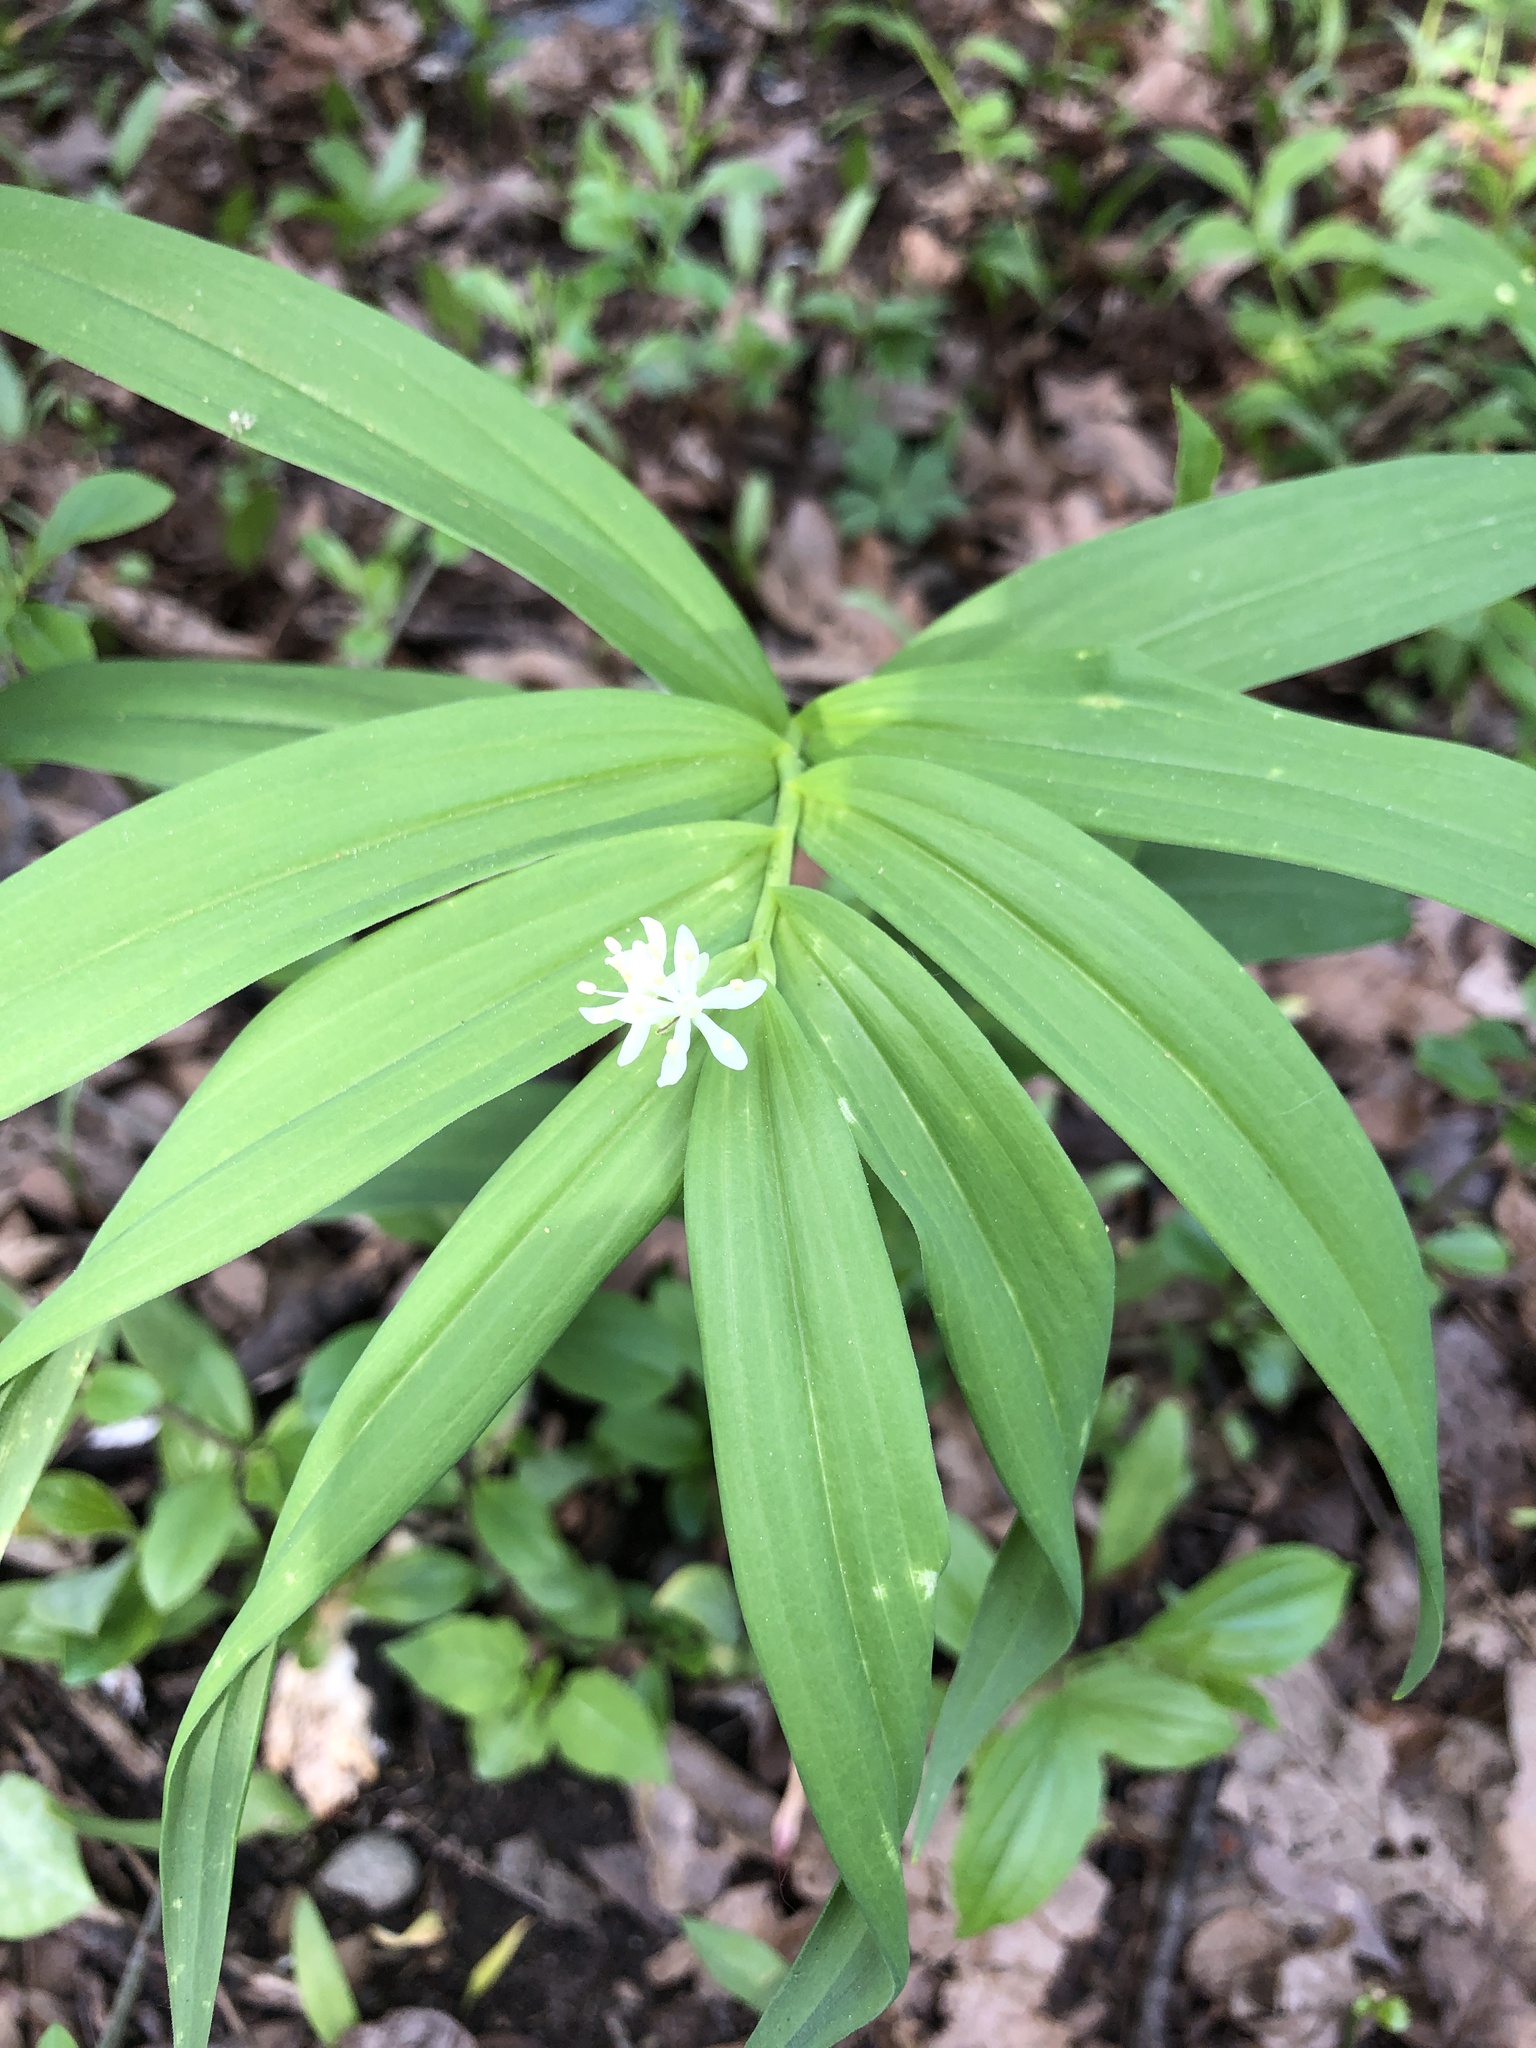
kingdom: Plantae
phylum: Tracheophyta
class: Liliopsida
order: Asparagales
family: Asparagaceae
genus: Maianthemum
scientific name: Maianthemum stellatum
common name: Little false solomon's seal
